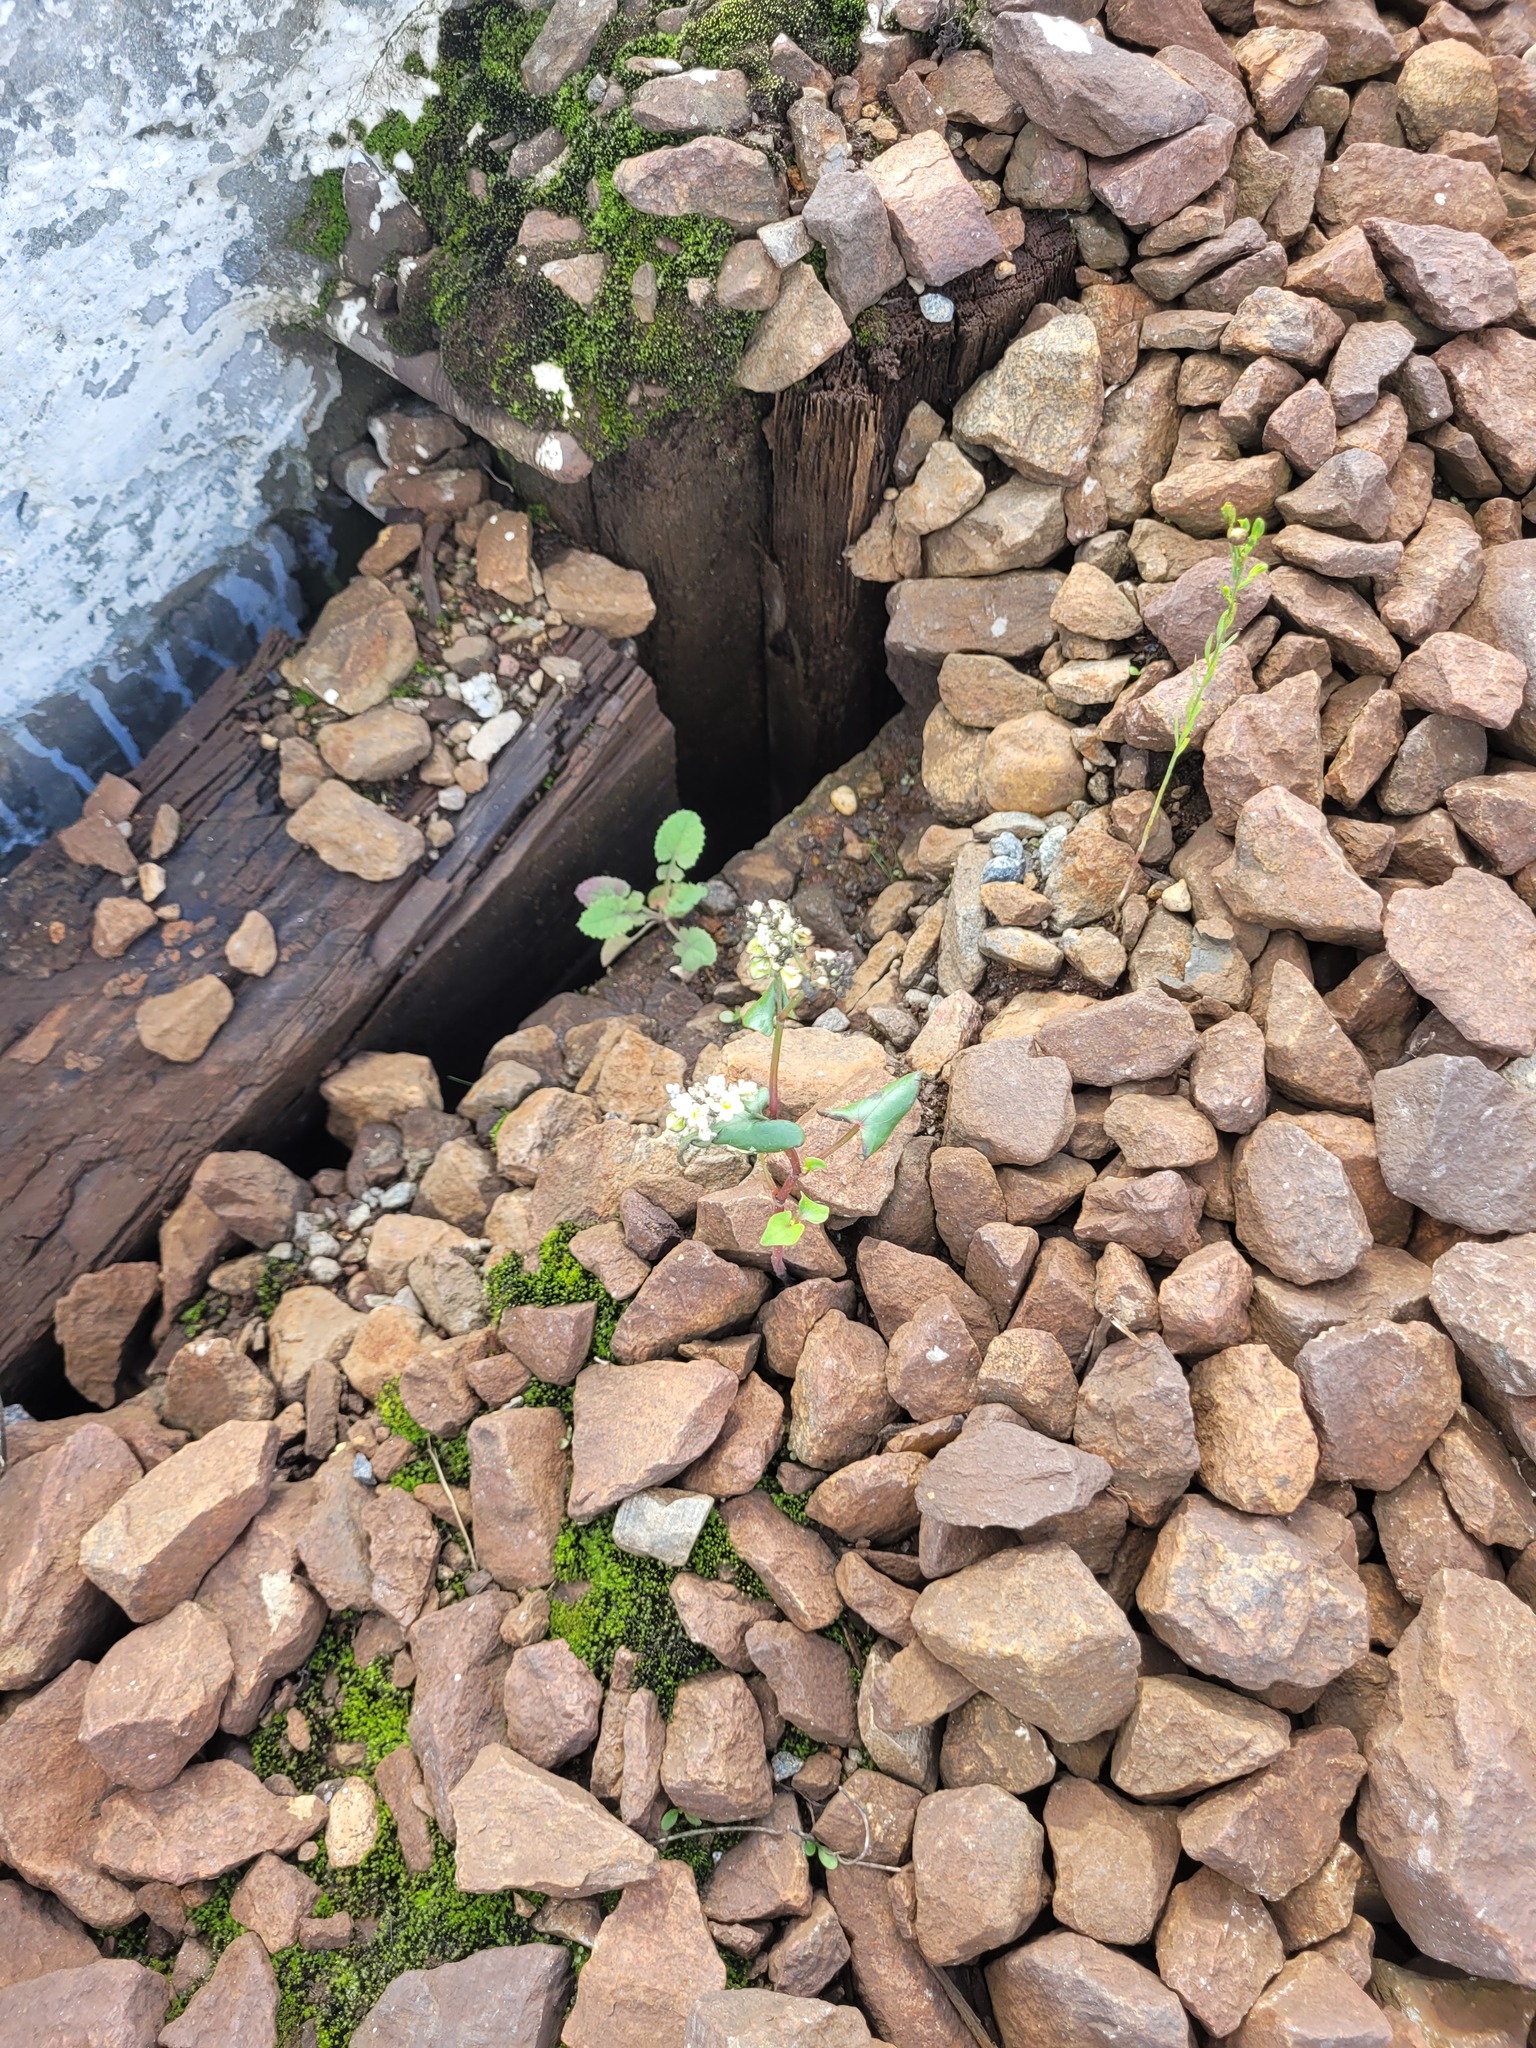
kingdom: Plantae
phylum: Tracheophyta
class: Magnoliopsida
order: Caryophyllales
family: Polygonaceae
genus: Fagopyrum
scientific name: Fagopyrum esculentum
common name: Buckwheat
